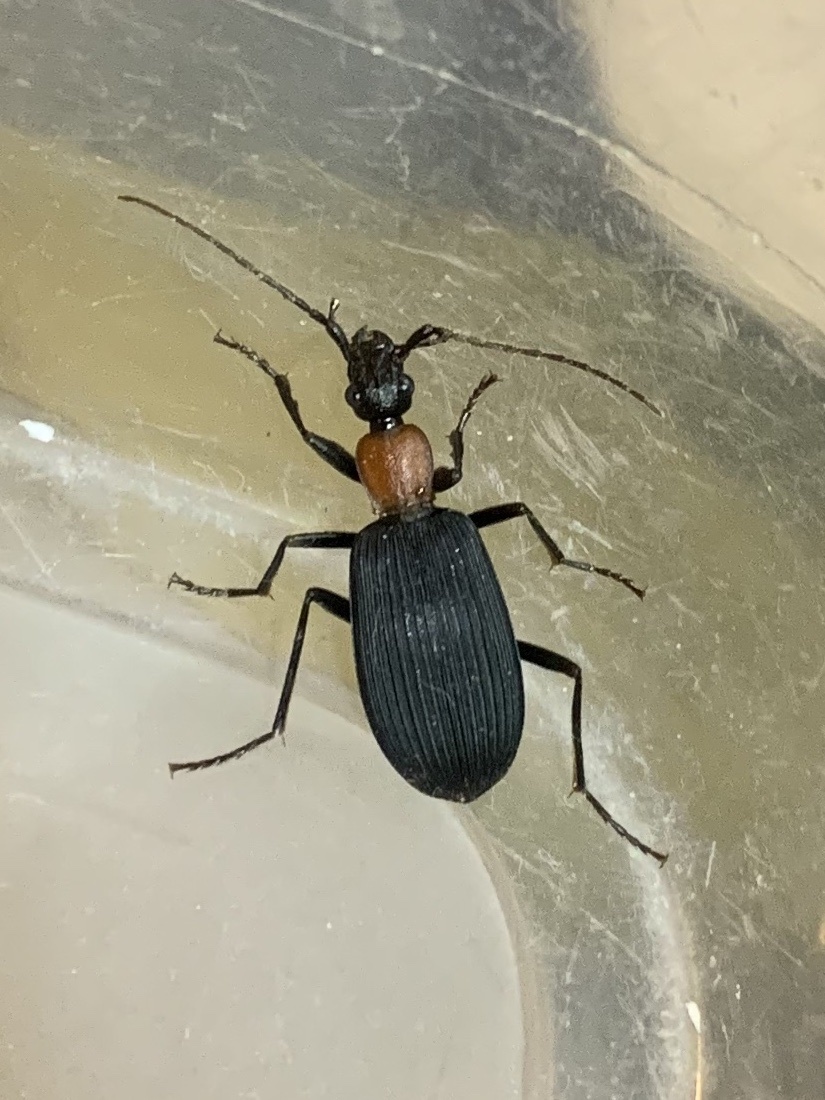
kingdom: Animalia
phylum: Arthropoda
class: Insecta
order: Coleoptera
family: Carabidae
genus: Galerita
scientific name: Galerita collaris
